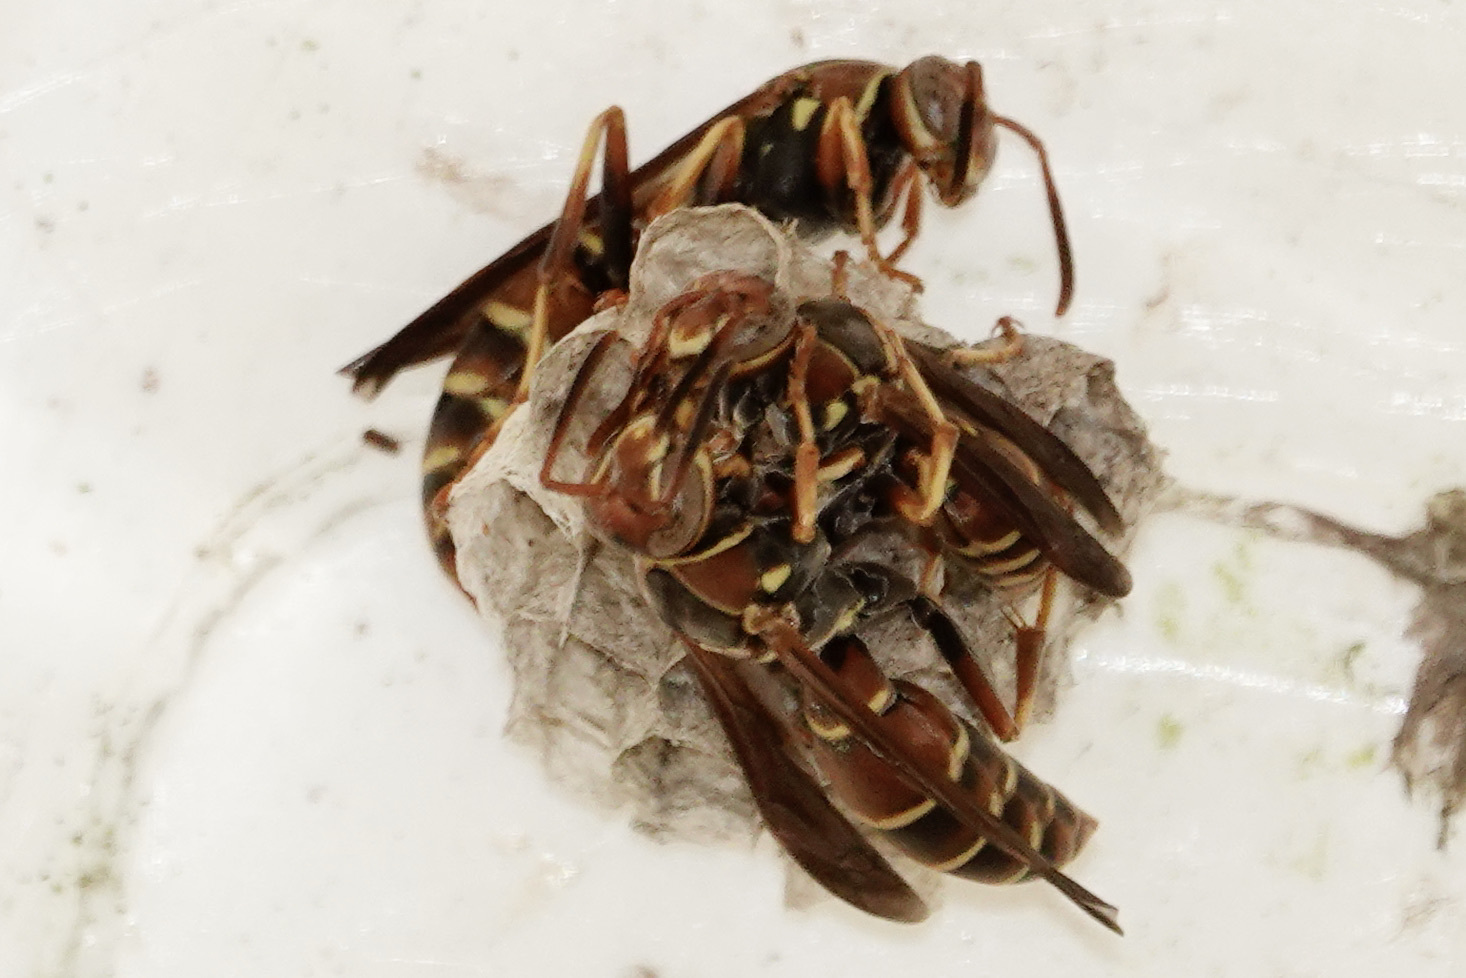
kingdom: Animalia
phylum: Arthropoda
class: Insecta
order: Hymenoptera
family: Eumenidae
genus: Polistes
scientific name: Polistes dorsalis
